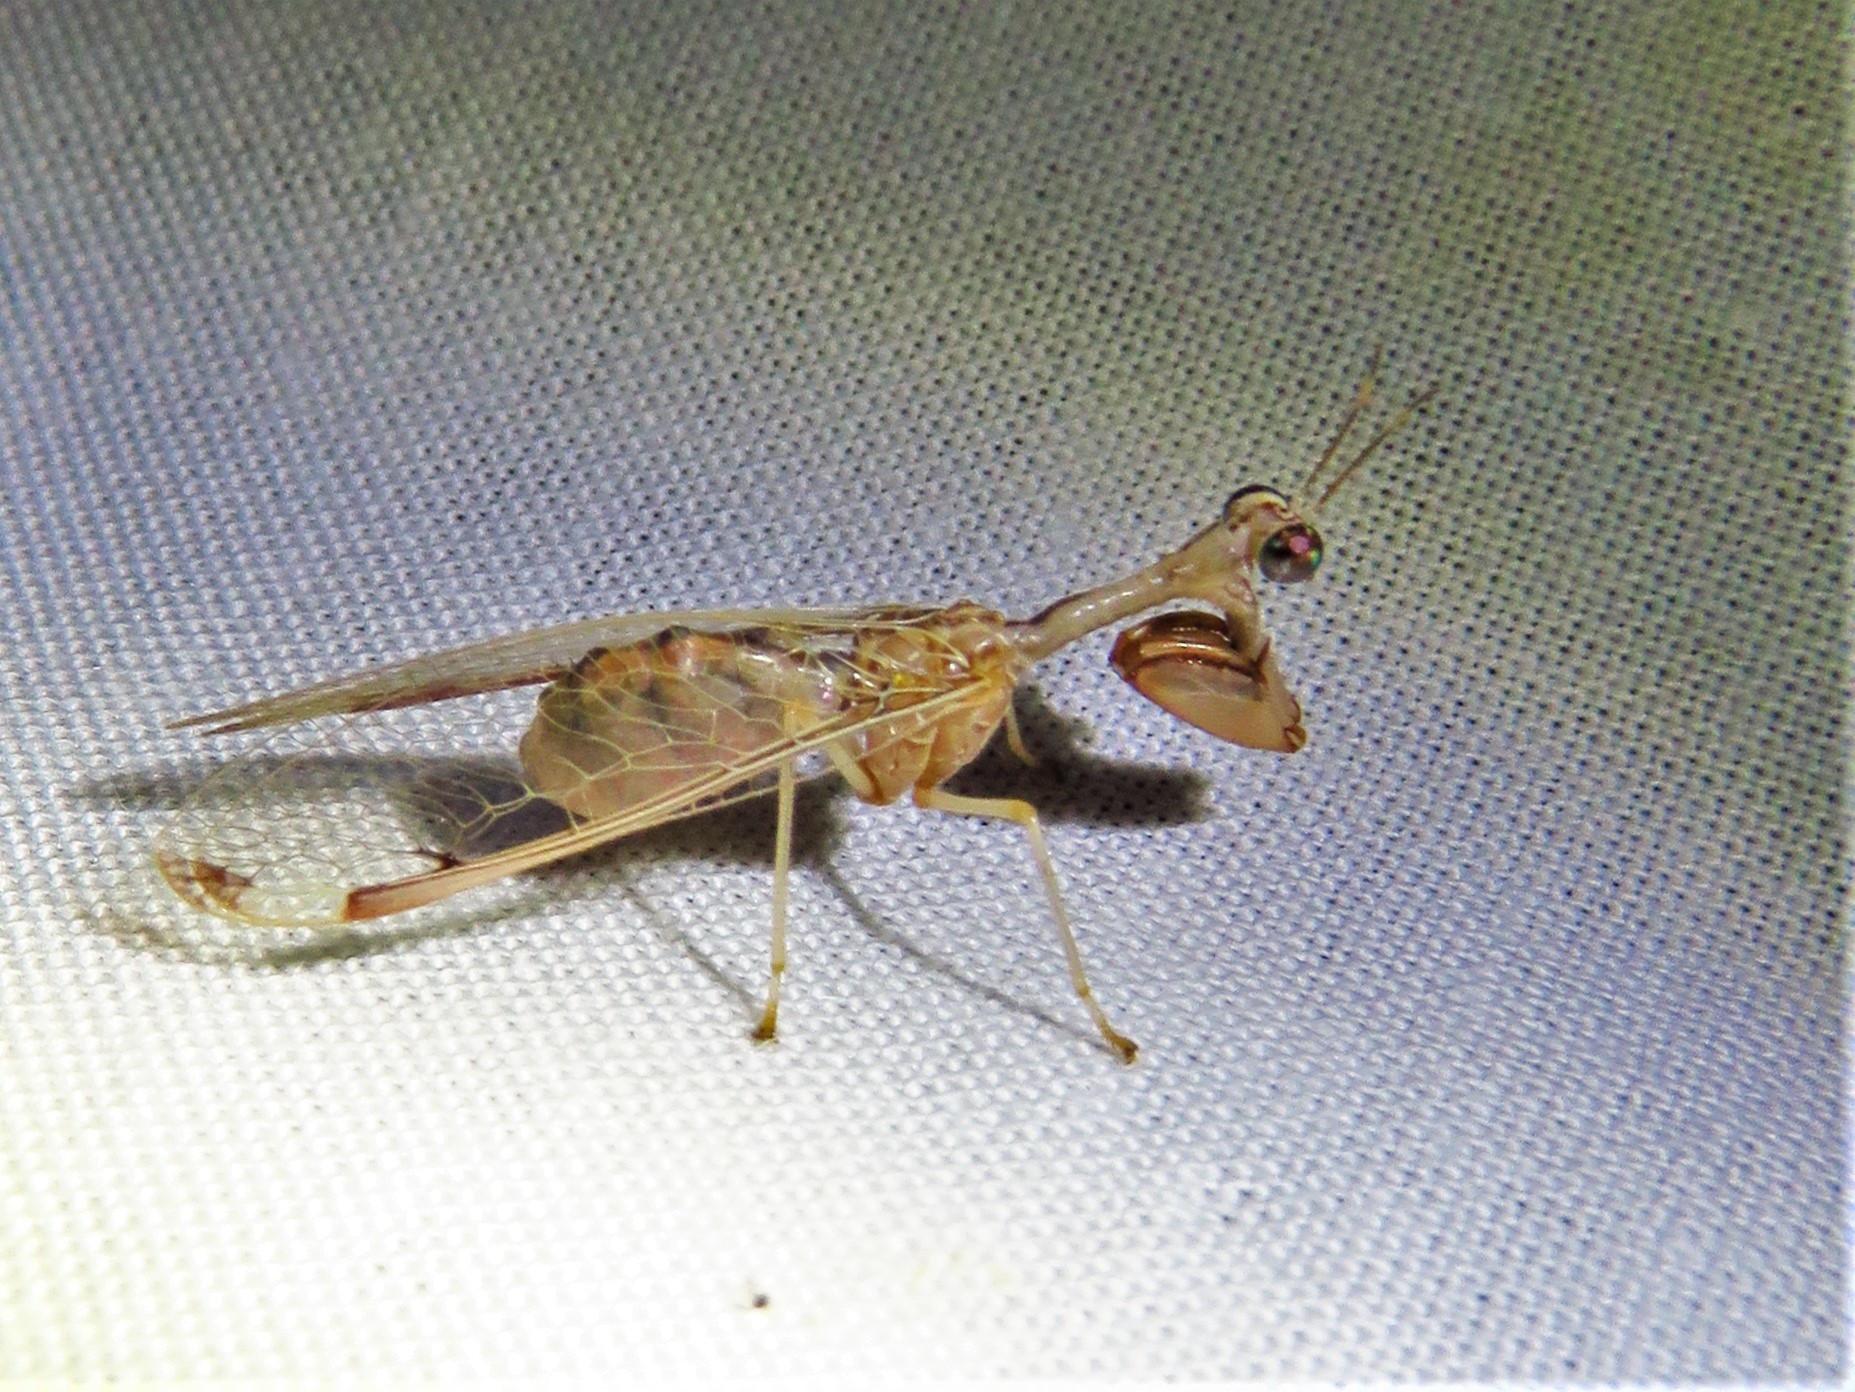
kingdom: Animalia
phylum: Arthropoda
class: Insecta
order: Neuroptera
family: Mantispidae
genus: Dicromantispa
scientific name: Dicromantispa interrupta
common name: Four-spotted mantidfly
